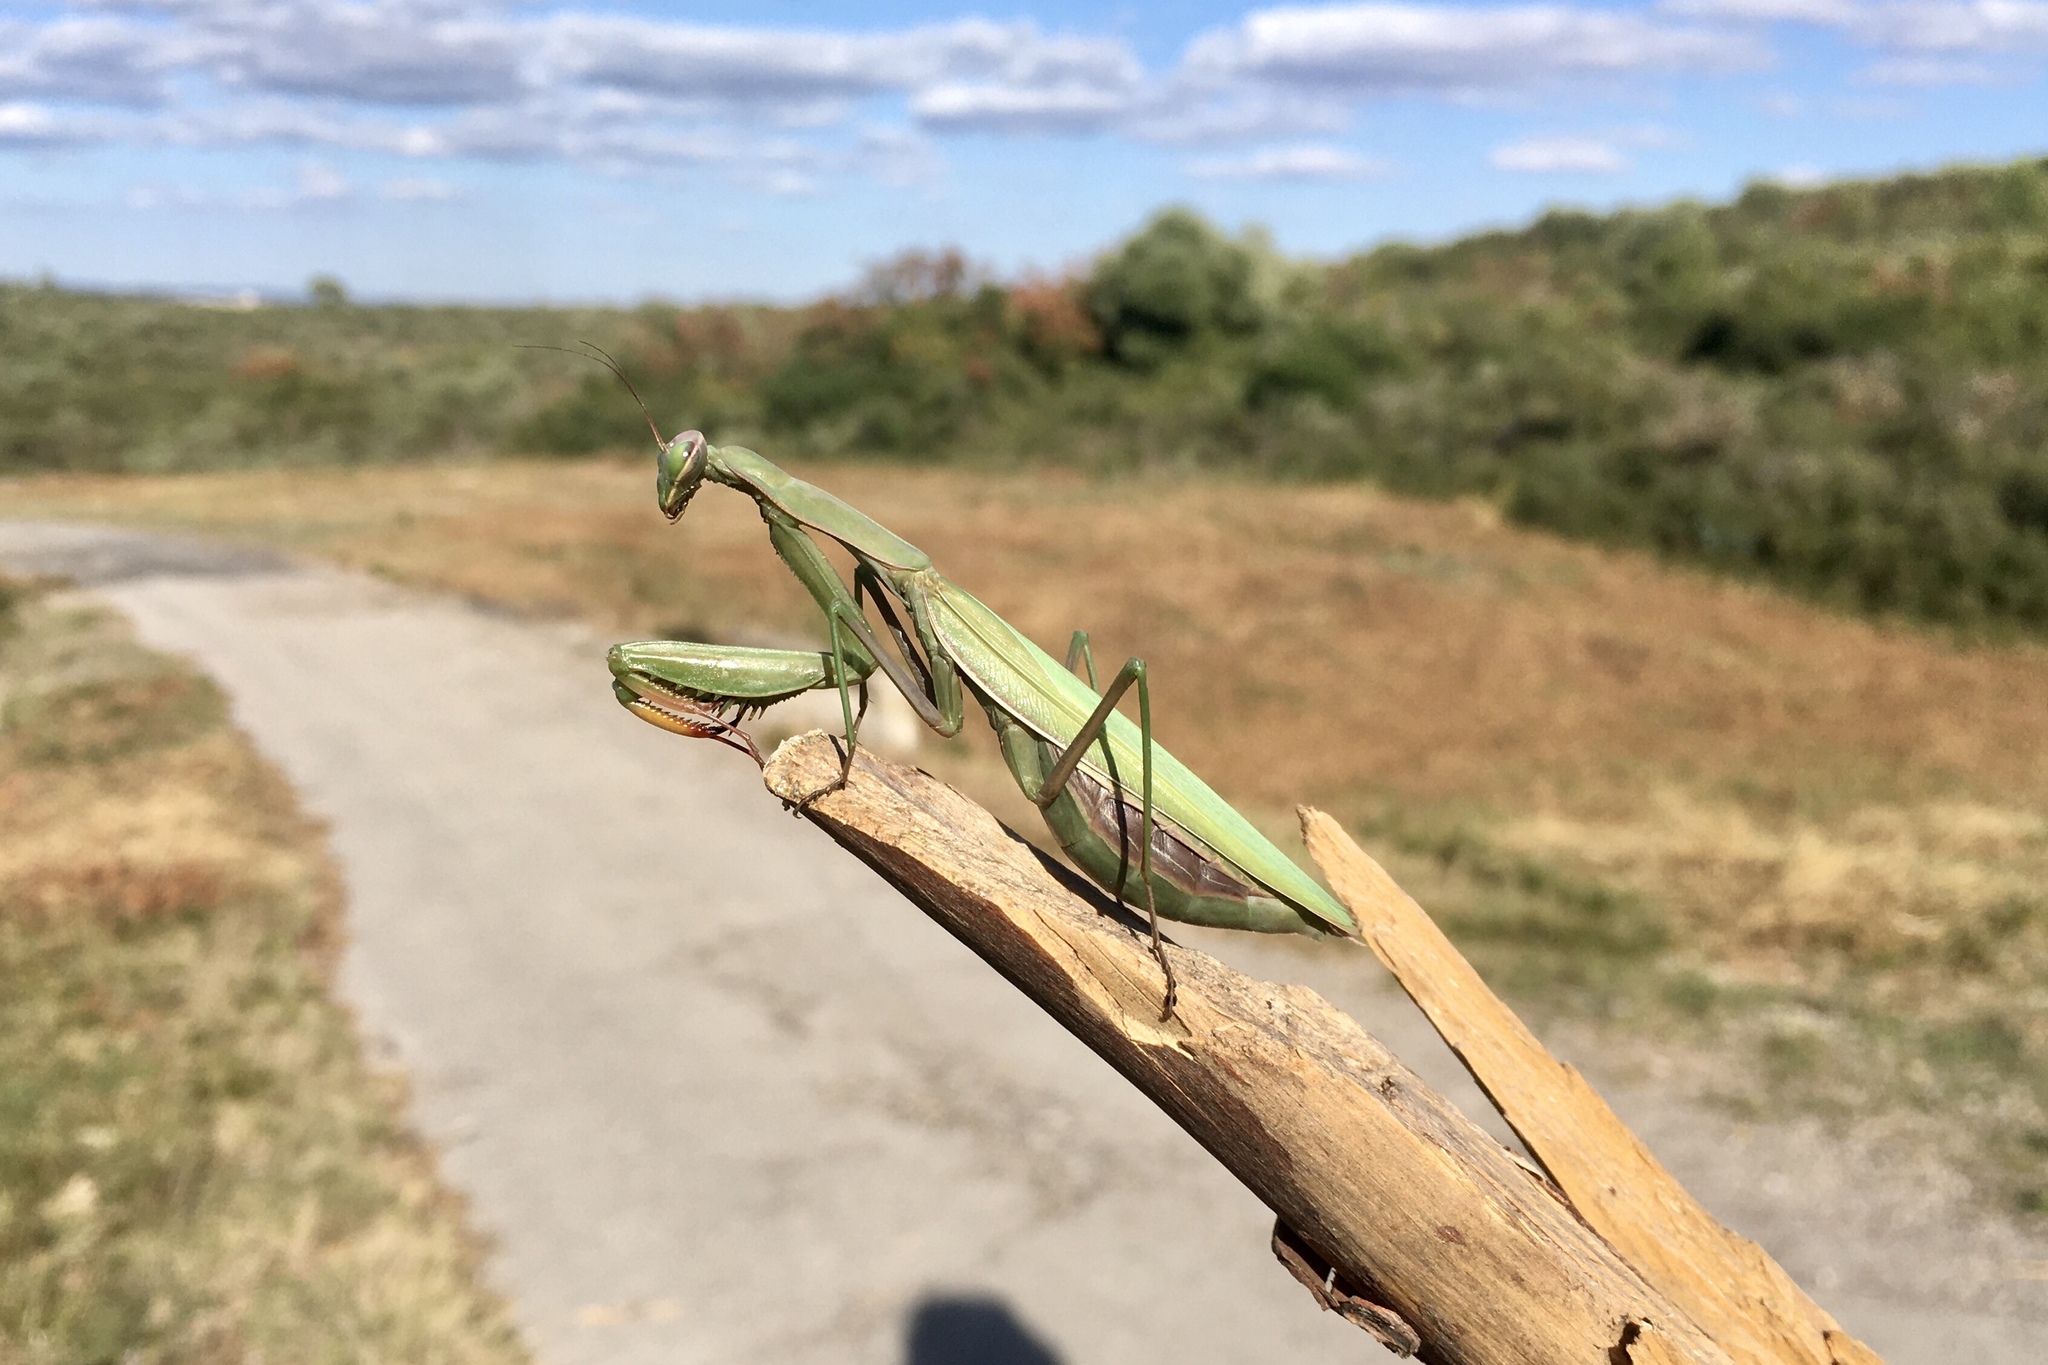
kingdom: Animalia
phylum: Arthropoda
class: Insecta
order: Mantodea
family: Mantidae
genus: Mantis
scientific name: Mantis religiosa
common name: Praying mantis
